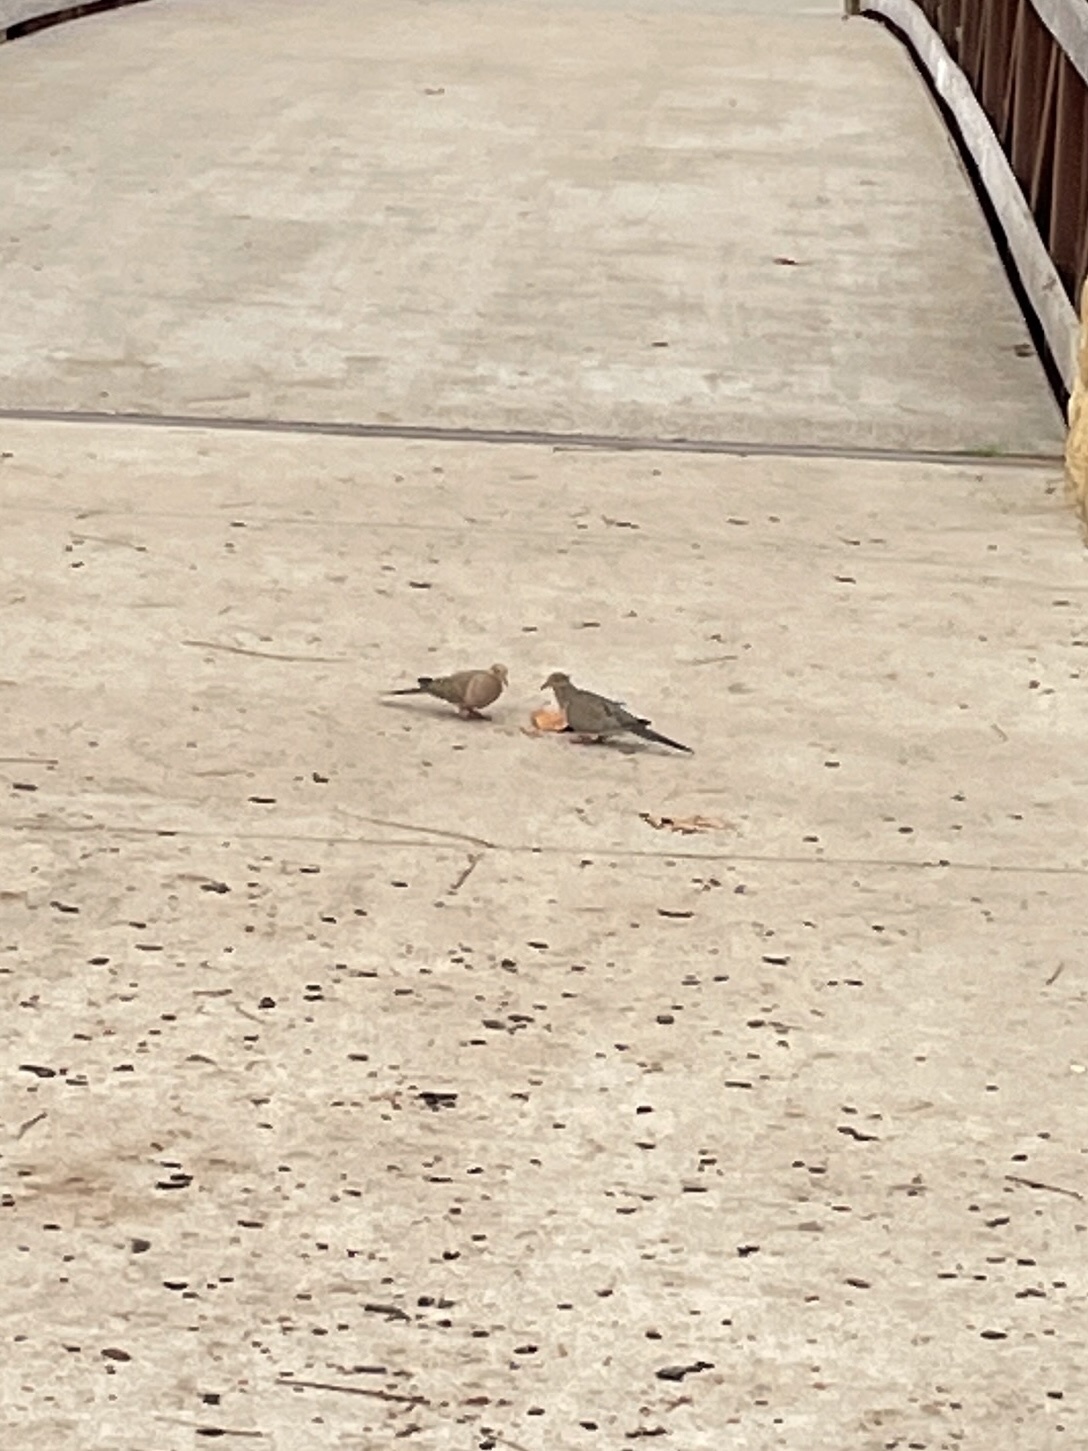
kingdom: Animalia
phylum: Chordata
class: Aves
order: Columbiformes
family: Columbidae
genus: Zenaida
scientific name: Zenaida macroura
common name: Mourning dove
